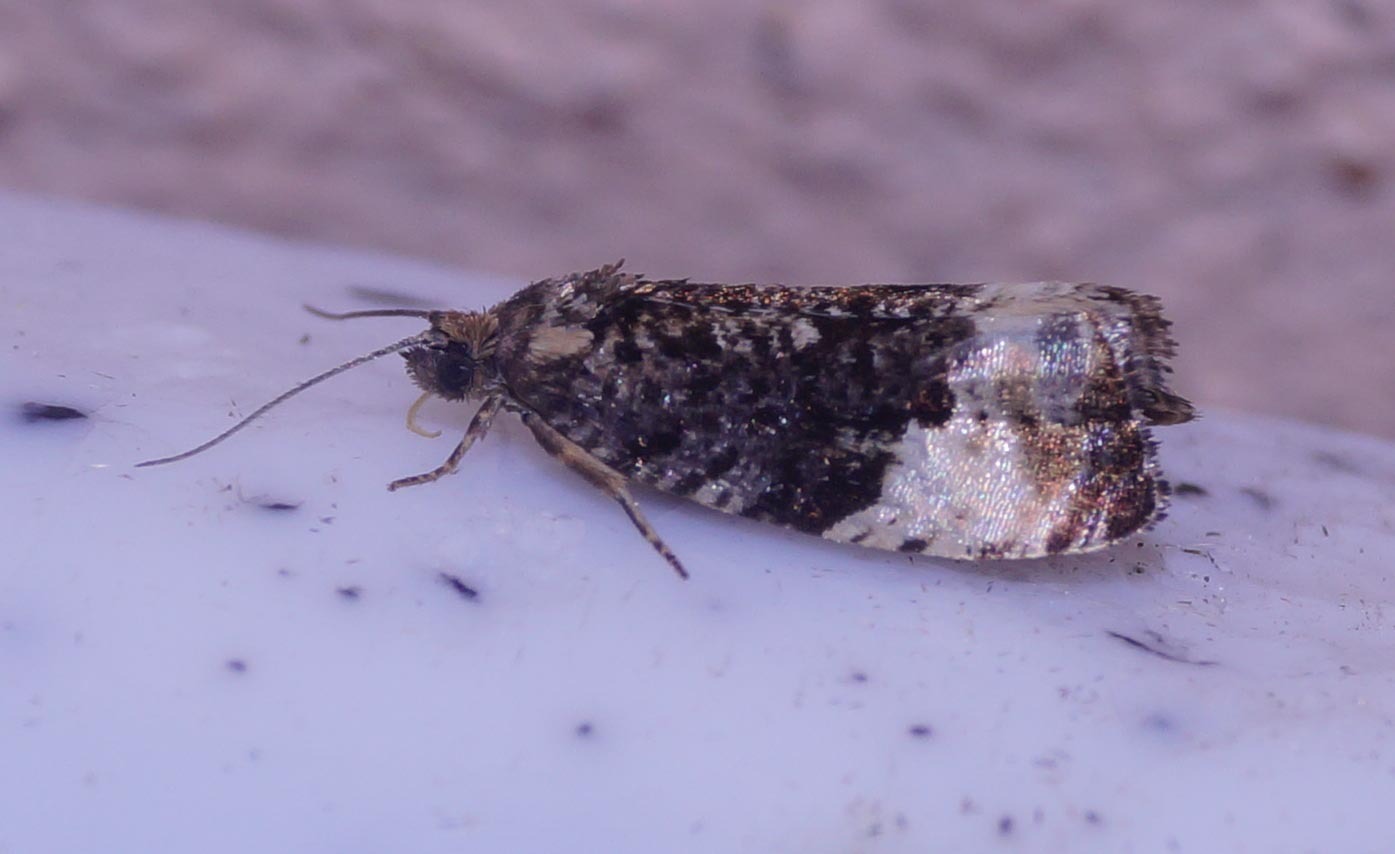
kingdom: Animalia
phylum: Arthropoda
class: Insecta
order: Lepidoptera
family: Tortricidae
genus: Hedya
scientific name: Hedya pruniana
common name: Plum tortrix
